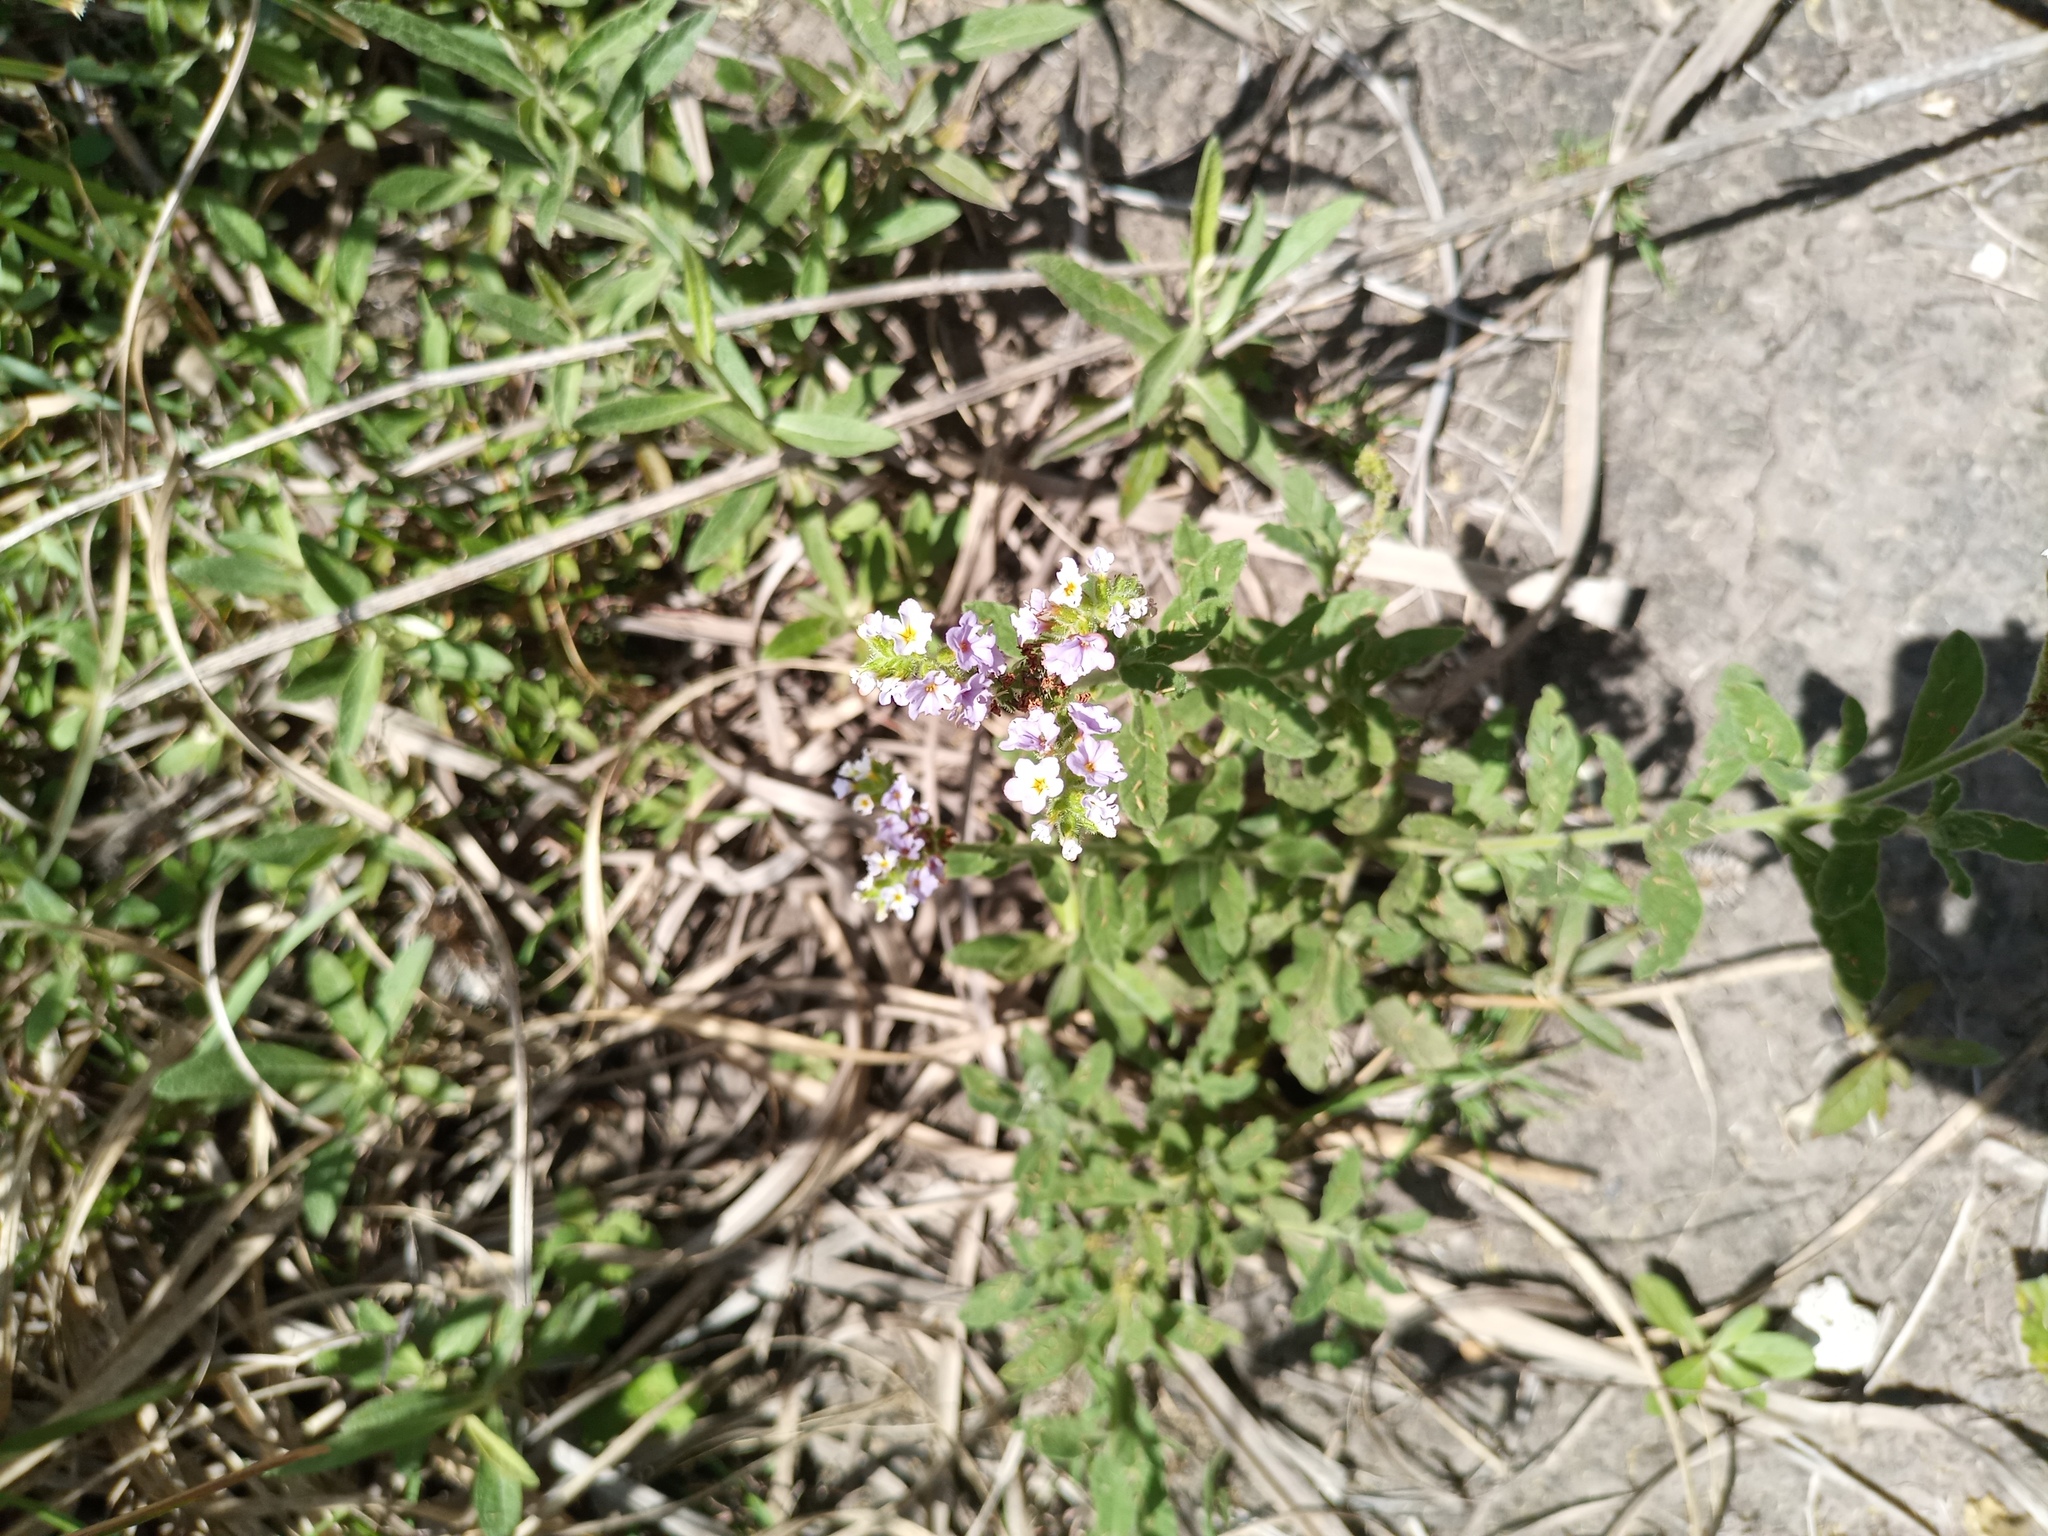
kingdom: Plantae
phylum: Tracheophyta
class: Magnoliopsida
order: Boraginales
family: Heliotropiaceae
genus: Heliotropium
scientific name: Heliotropium amplexicaule
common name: Clasping heliotrope
